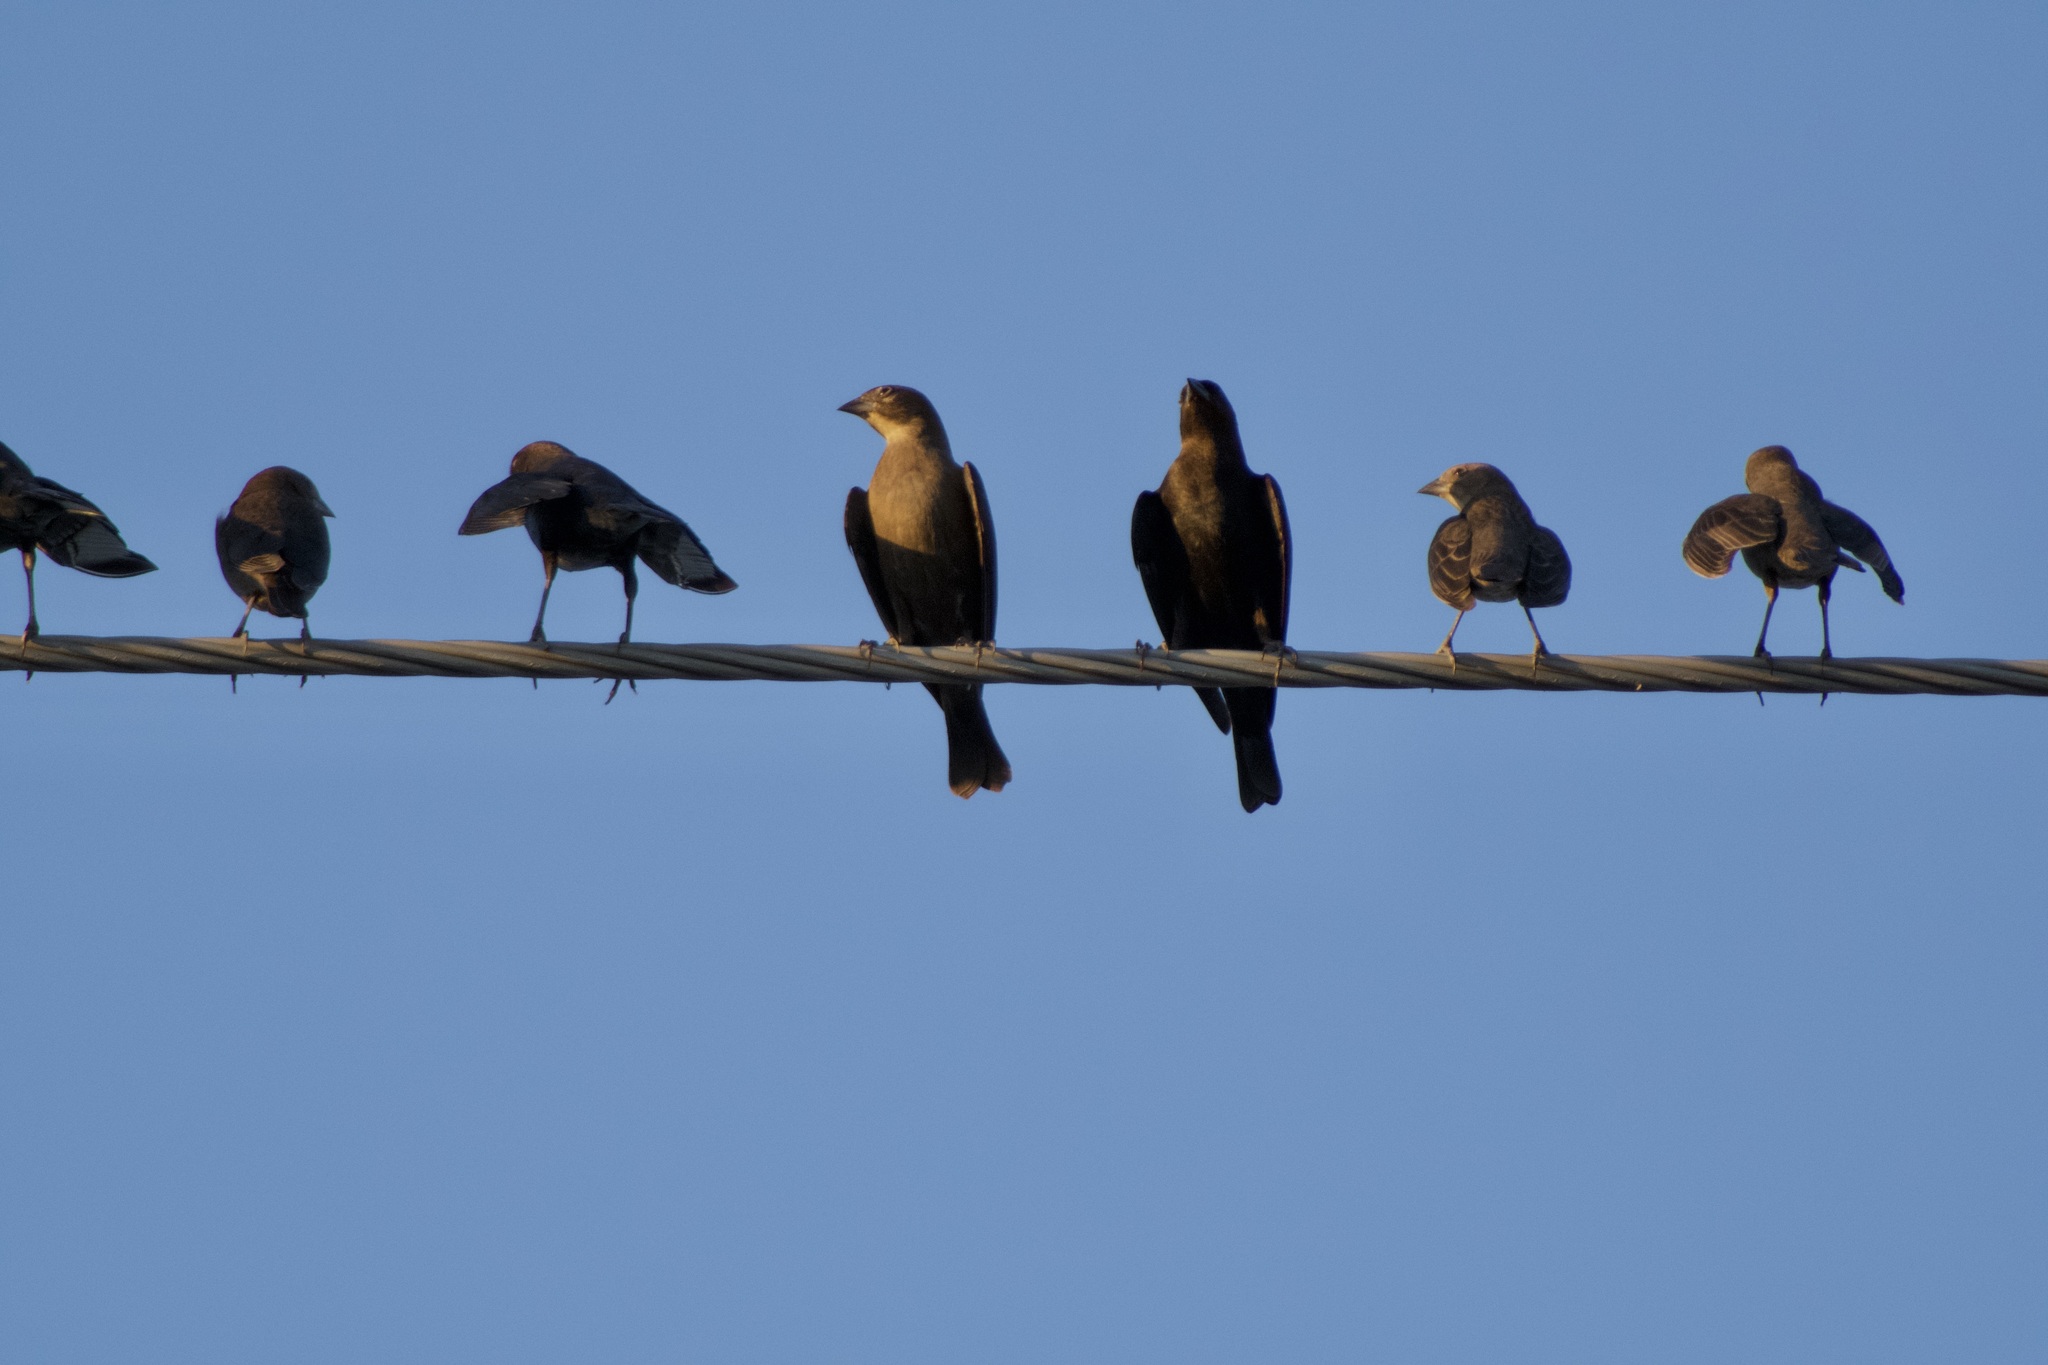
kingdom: Animalia
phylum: Chordata
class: Aves
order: Passeriformes
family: Icteridae
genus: Molothrus
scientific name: Molothrus ater
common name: Brown-headed cowbird
